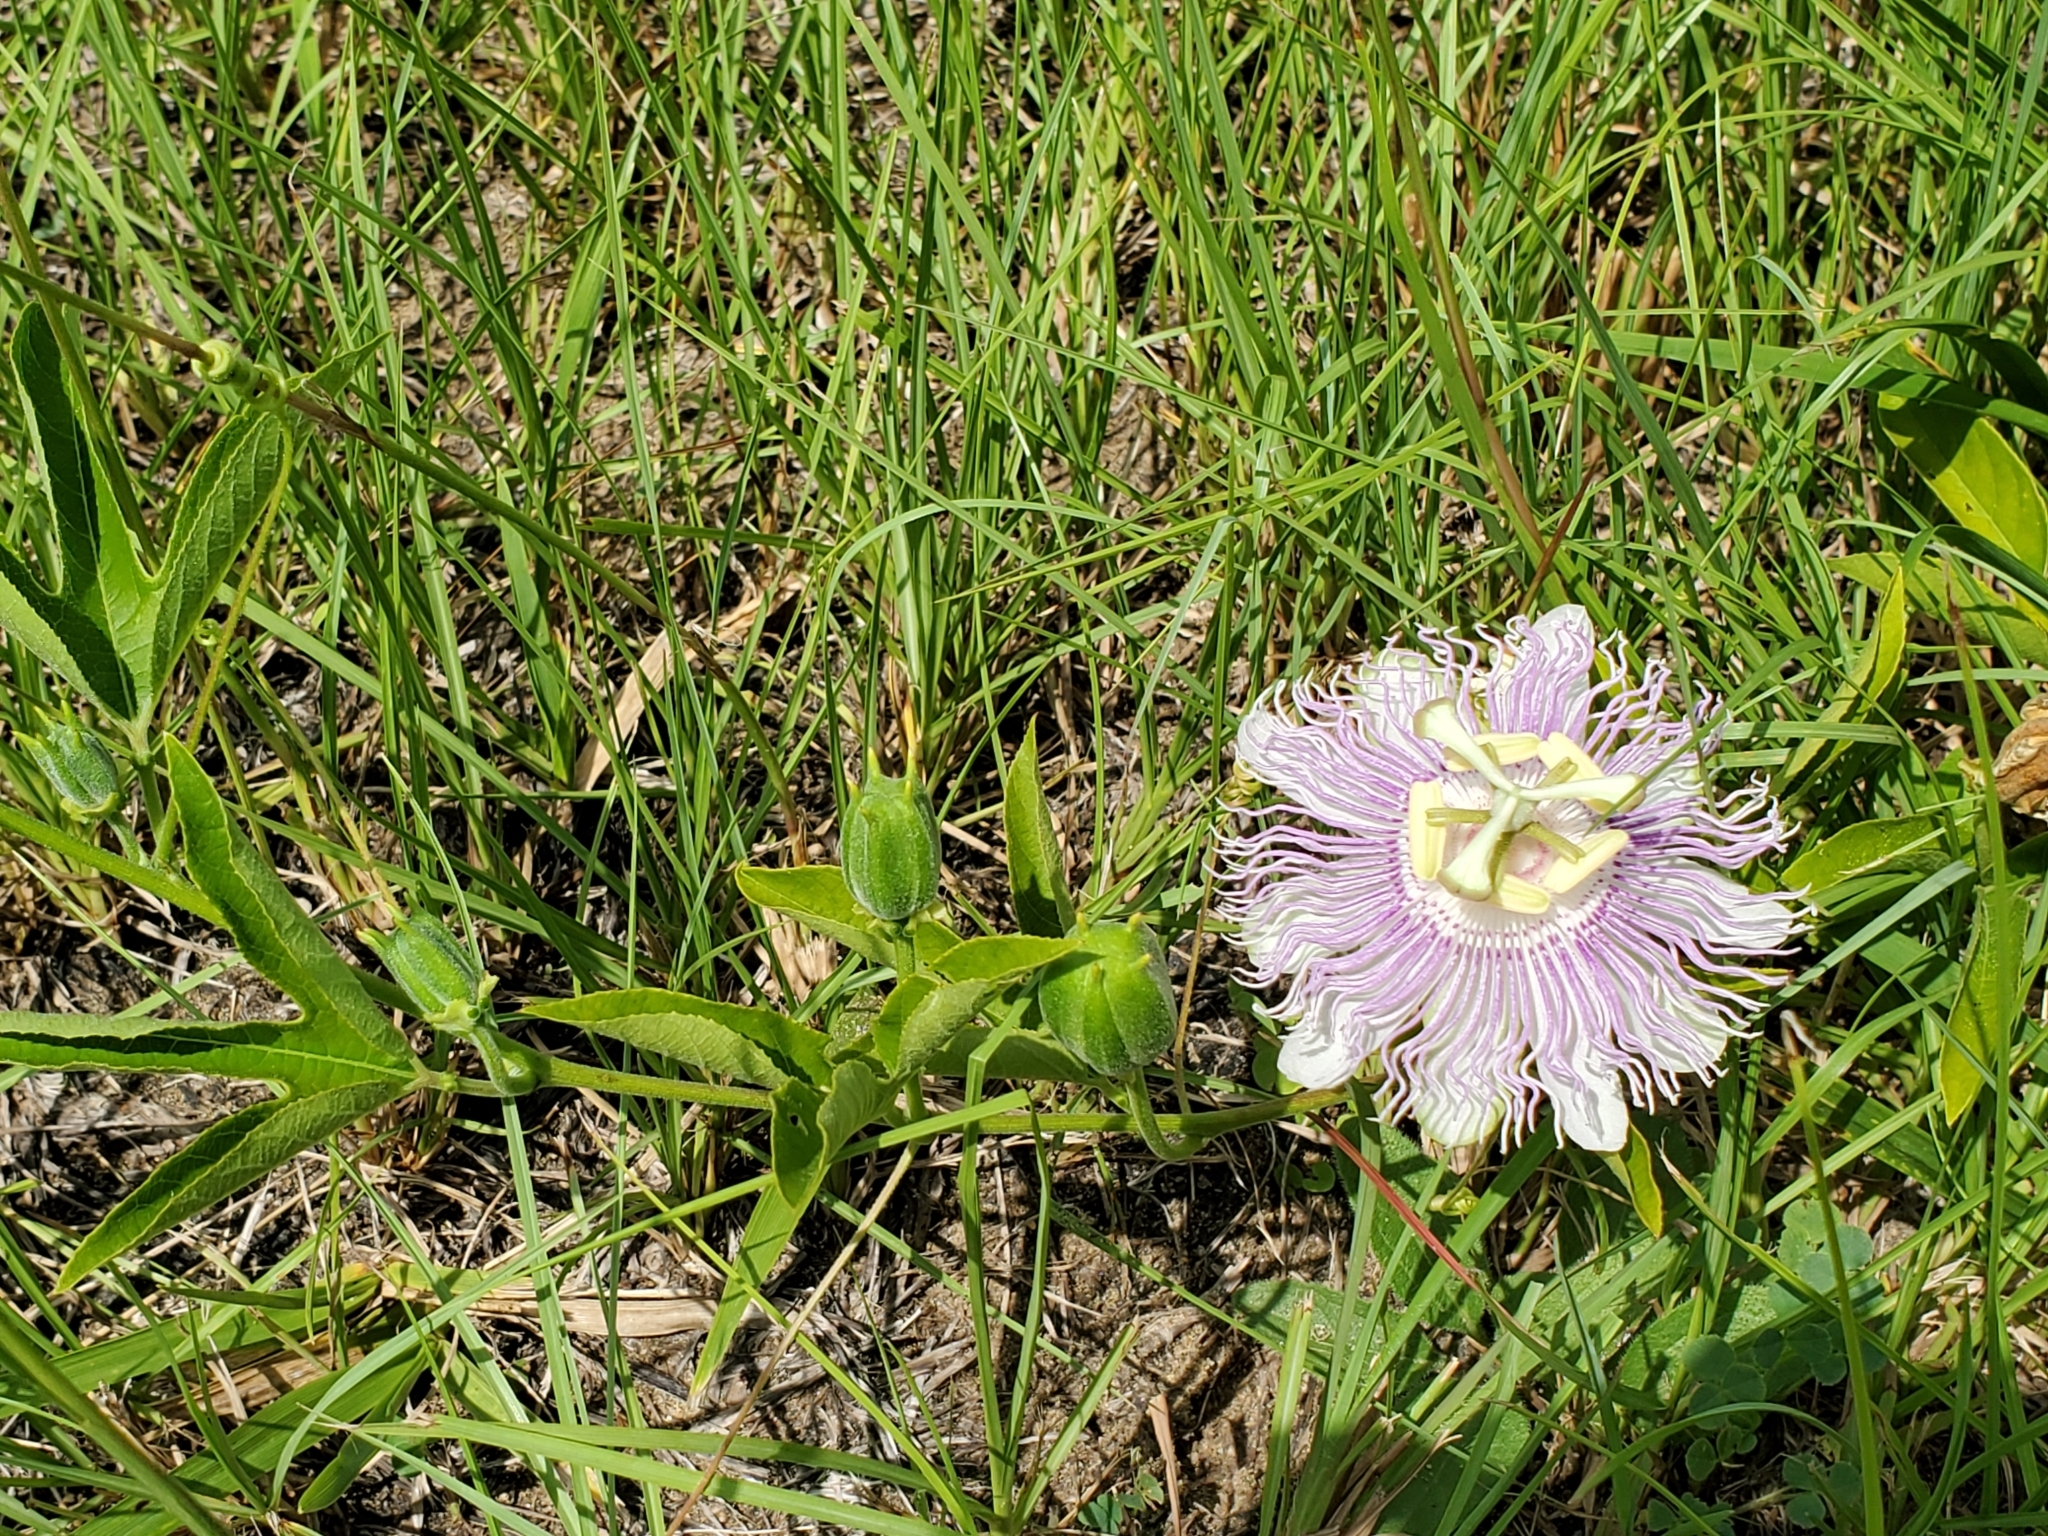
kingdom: Plantae
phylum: Tracheophyta
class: Magnoliopsida
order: Malpighiales
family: Passifloraceae
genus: Passiflora
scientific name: Passiflora incarnata
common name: Apricot-vine
